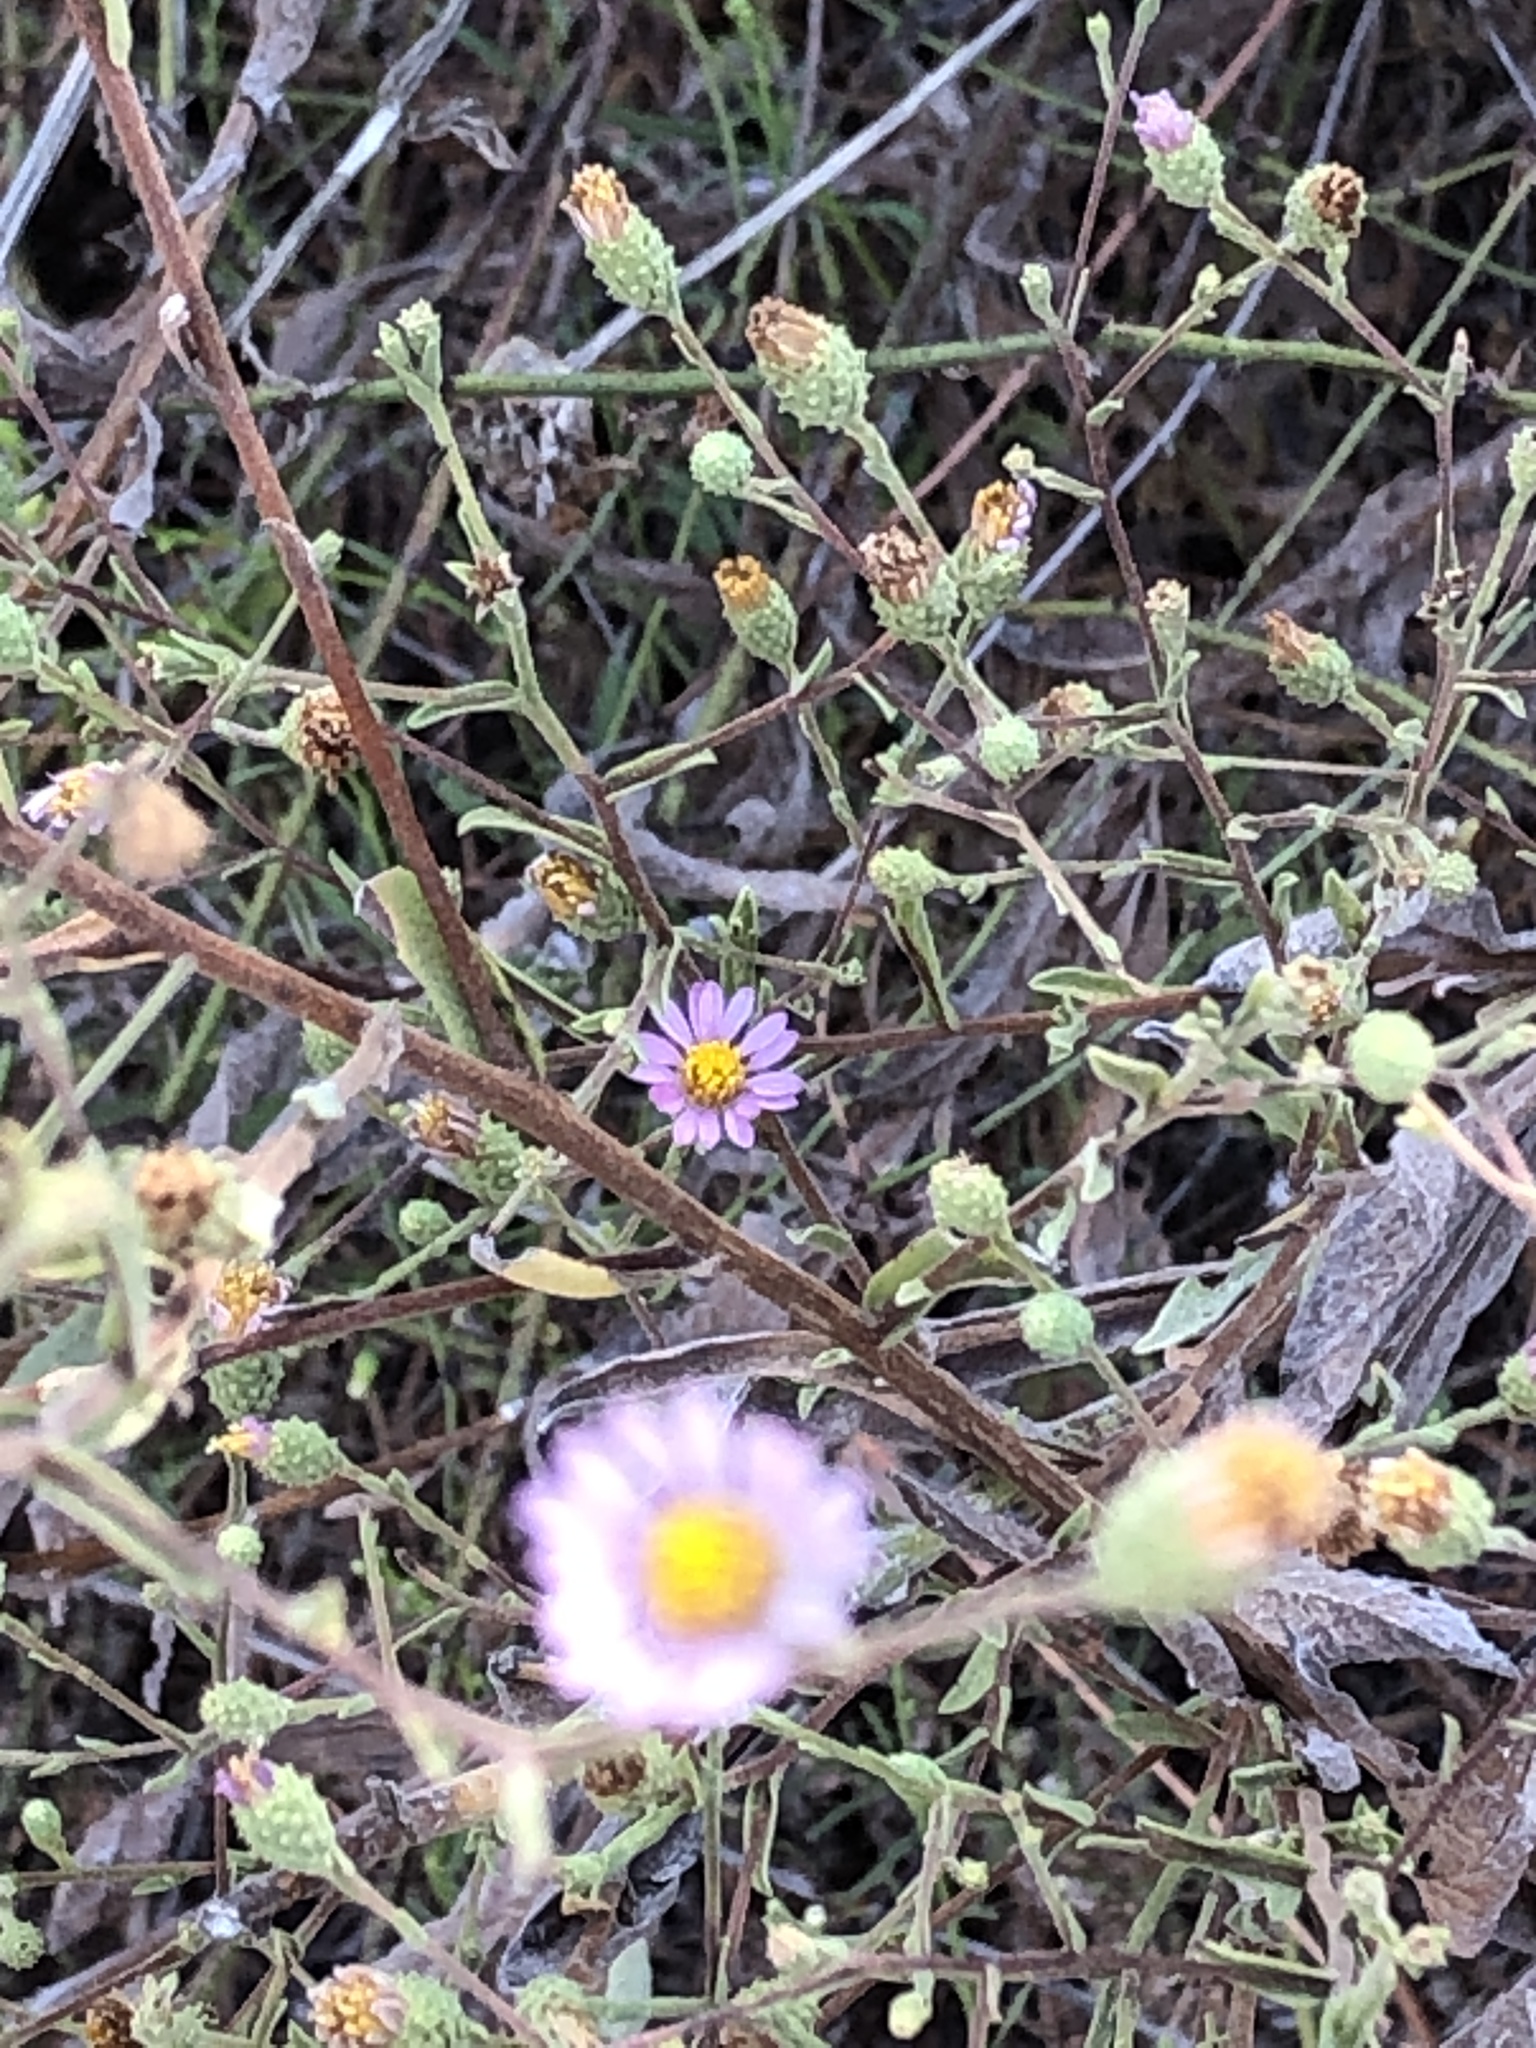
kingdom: Plantae
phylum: Tracheophyta
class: Magnoliopsida
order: Asterales
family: Asteraceae
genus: Corethrogyne
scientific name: Corethrogyne filaginifolia
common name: Sand-aster
